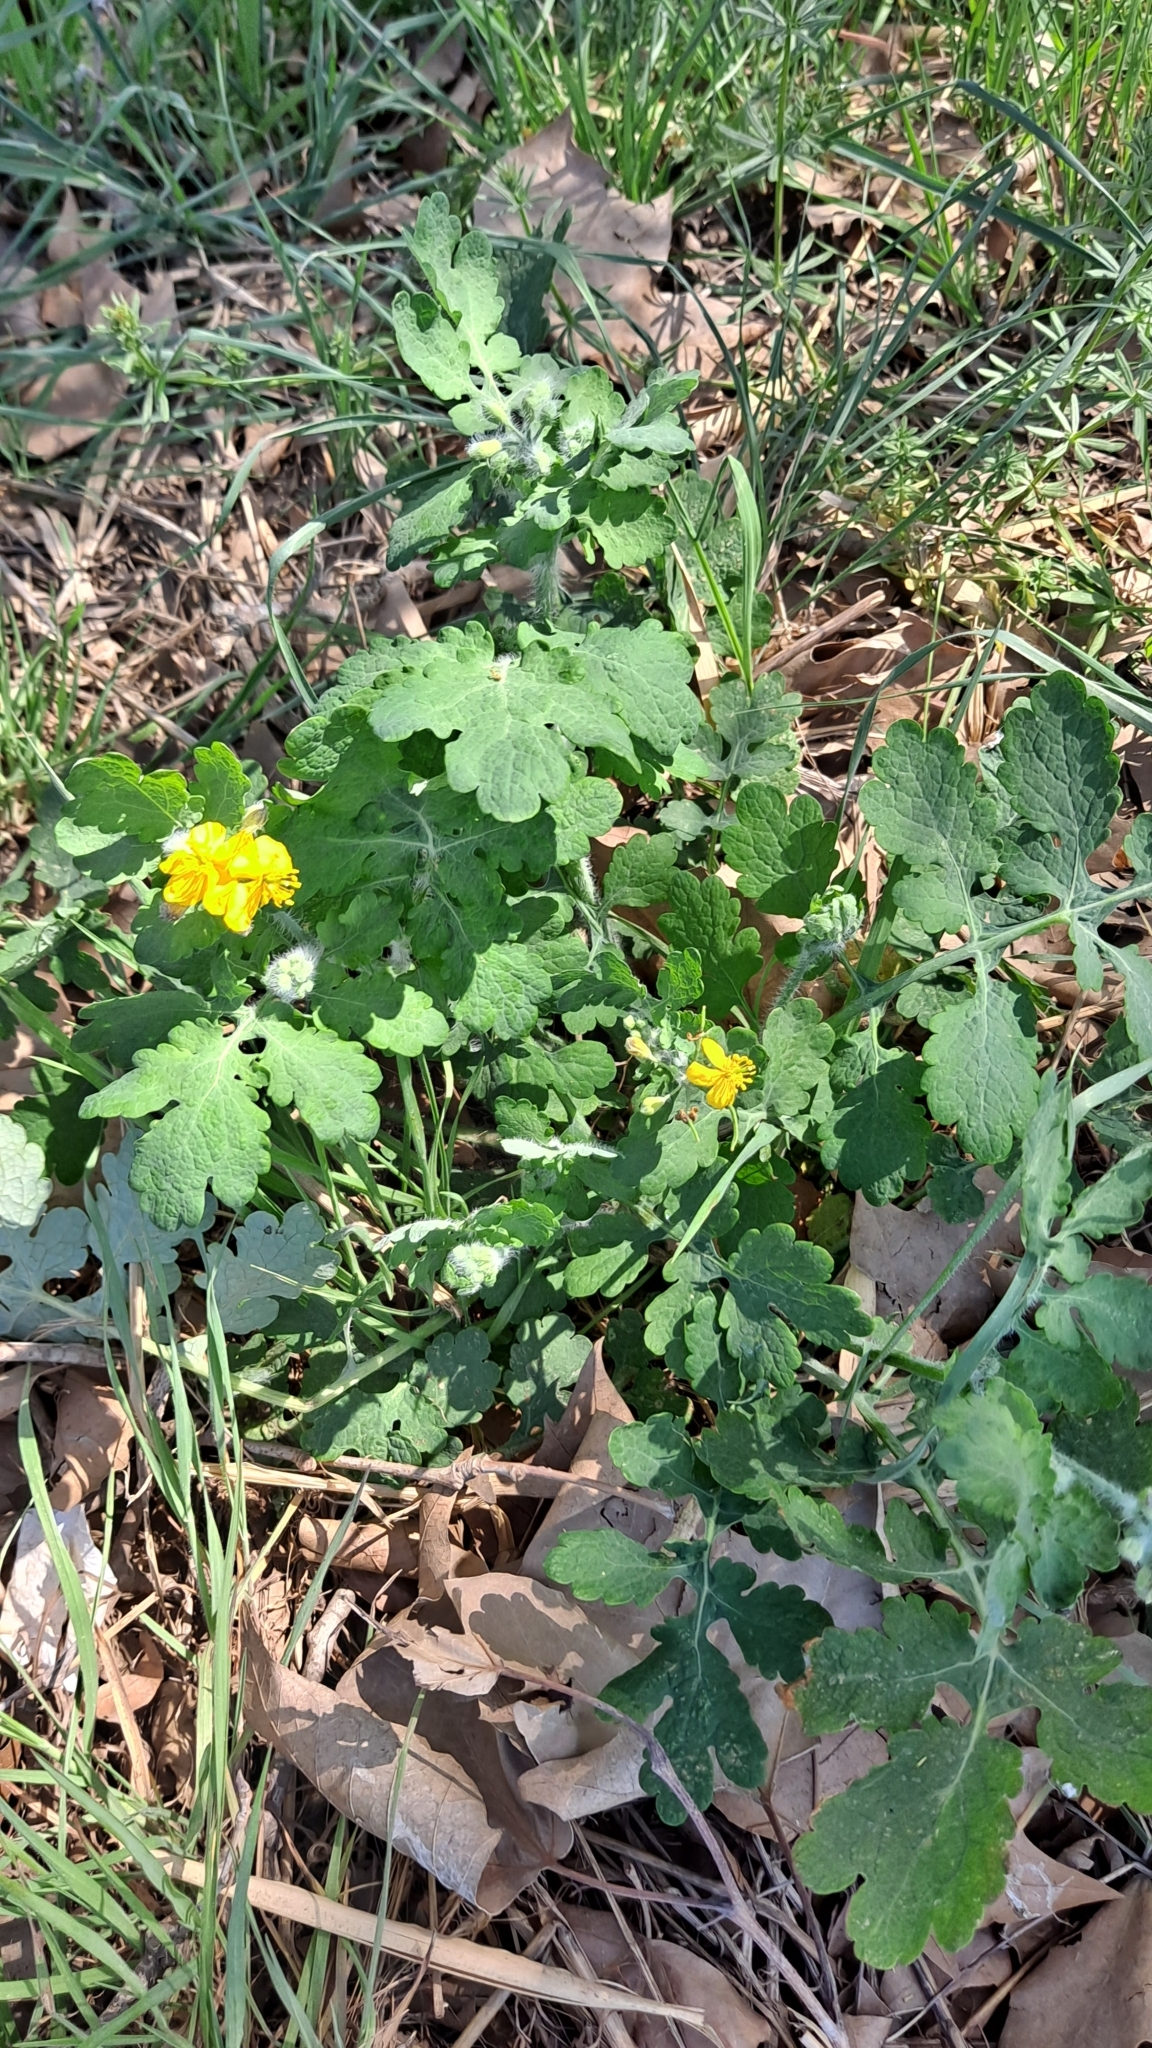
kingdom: Plantae
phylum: Tracheophyta
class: Magnoliopsida
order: Ranunculales
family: Papaveraceae
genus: Chelidonium
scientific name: Chelidonium majus
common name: Greater celandine
